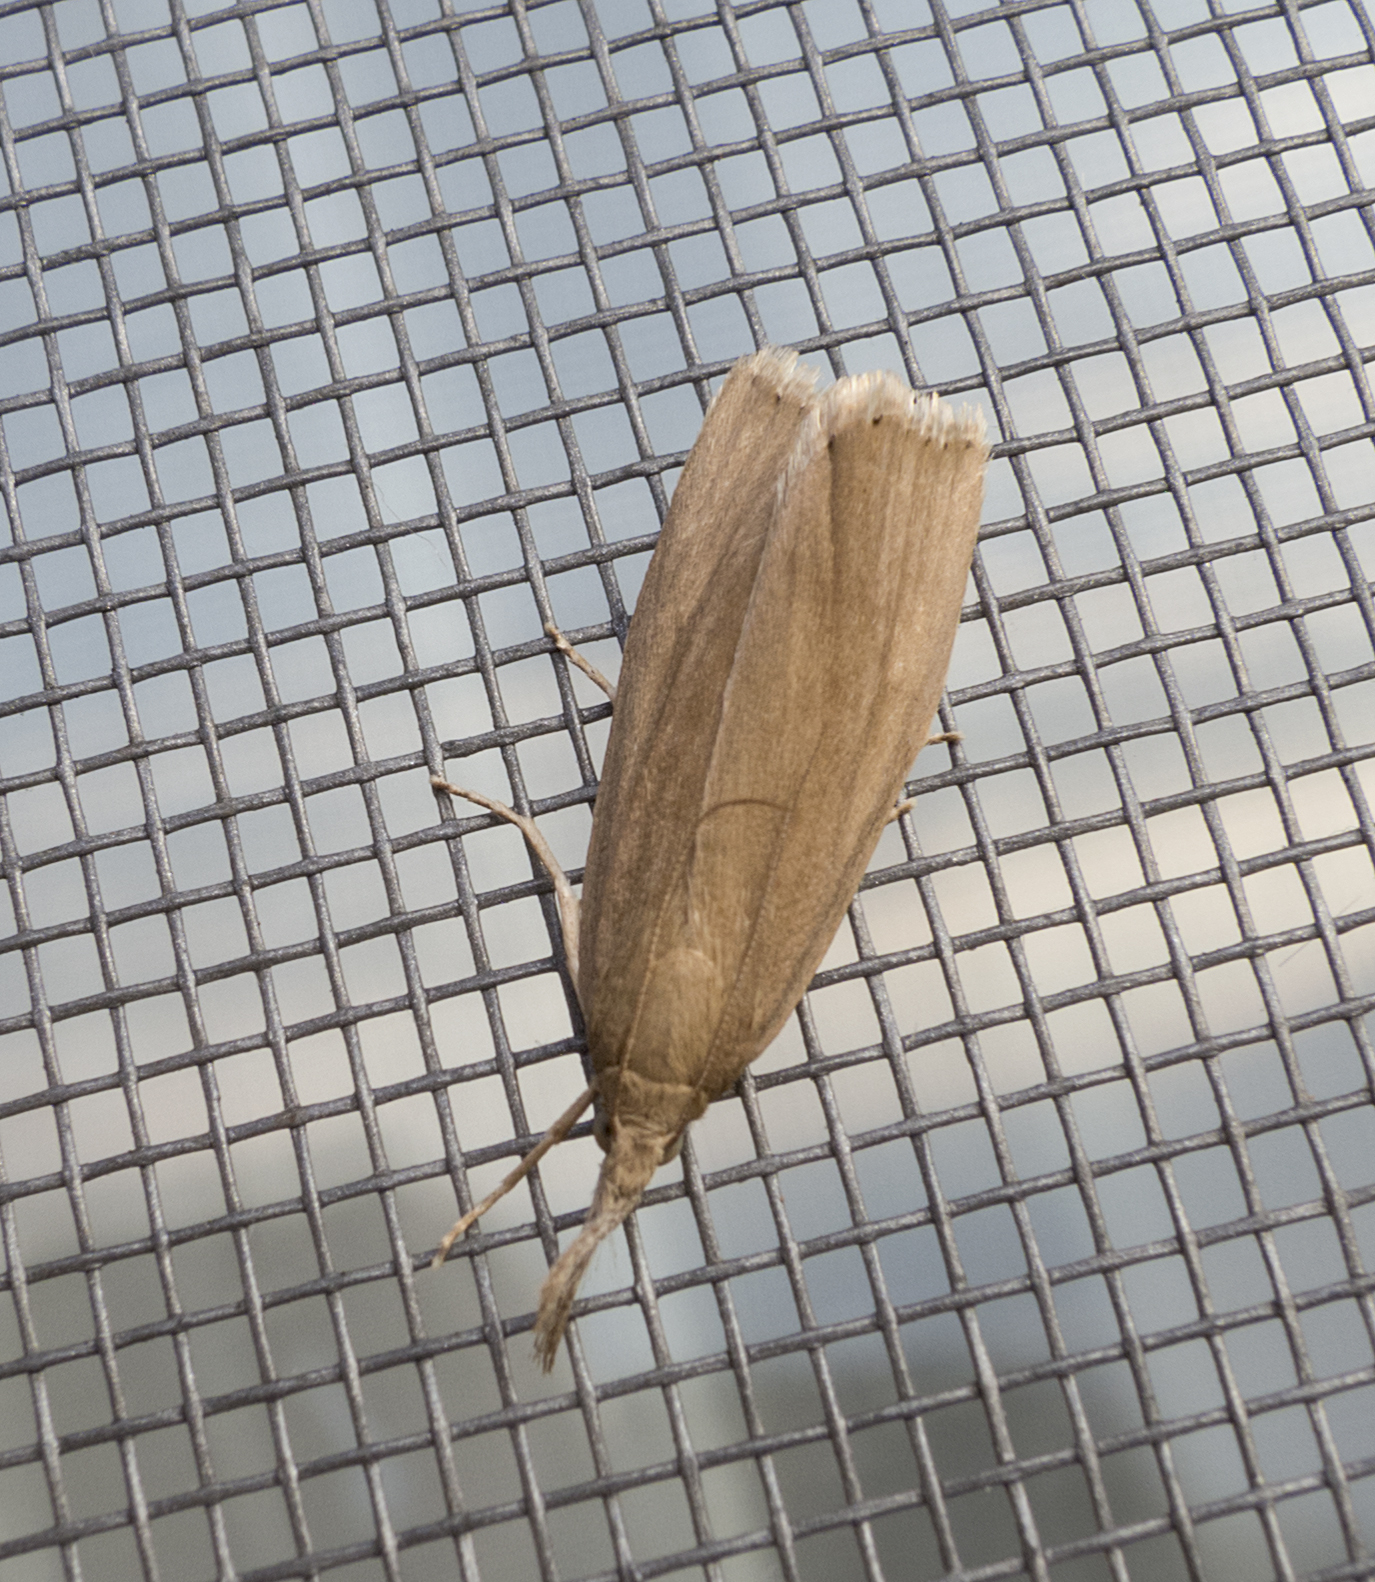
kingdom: Animalia
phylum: Arthropoda
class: Insecta
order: Lepidoptera
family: Crambidae
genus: Chilo
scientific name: Chilo phragmitella
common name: Reed veneer
